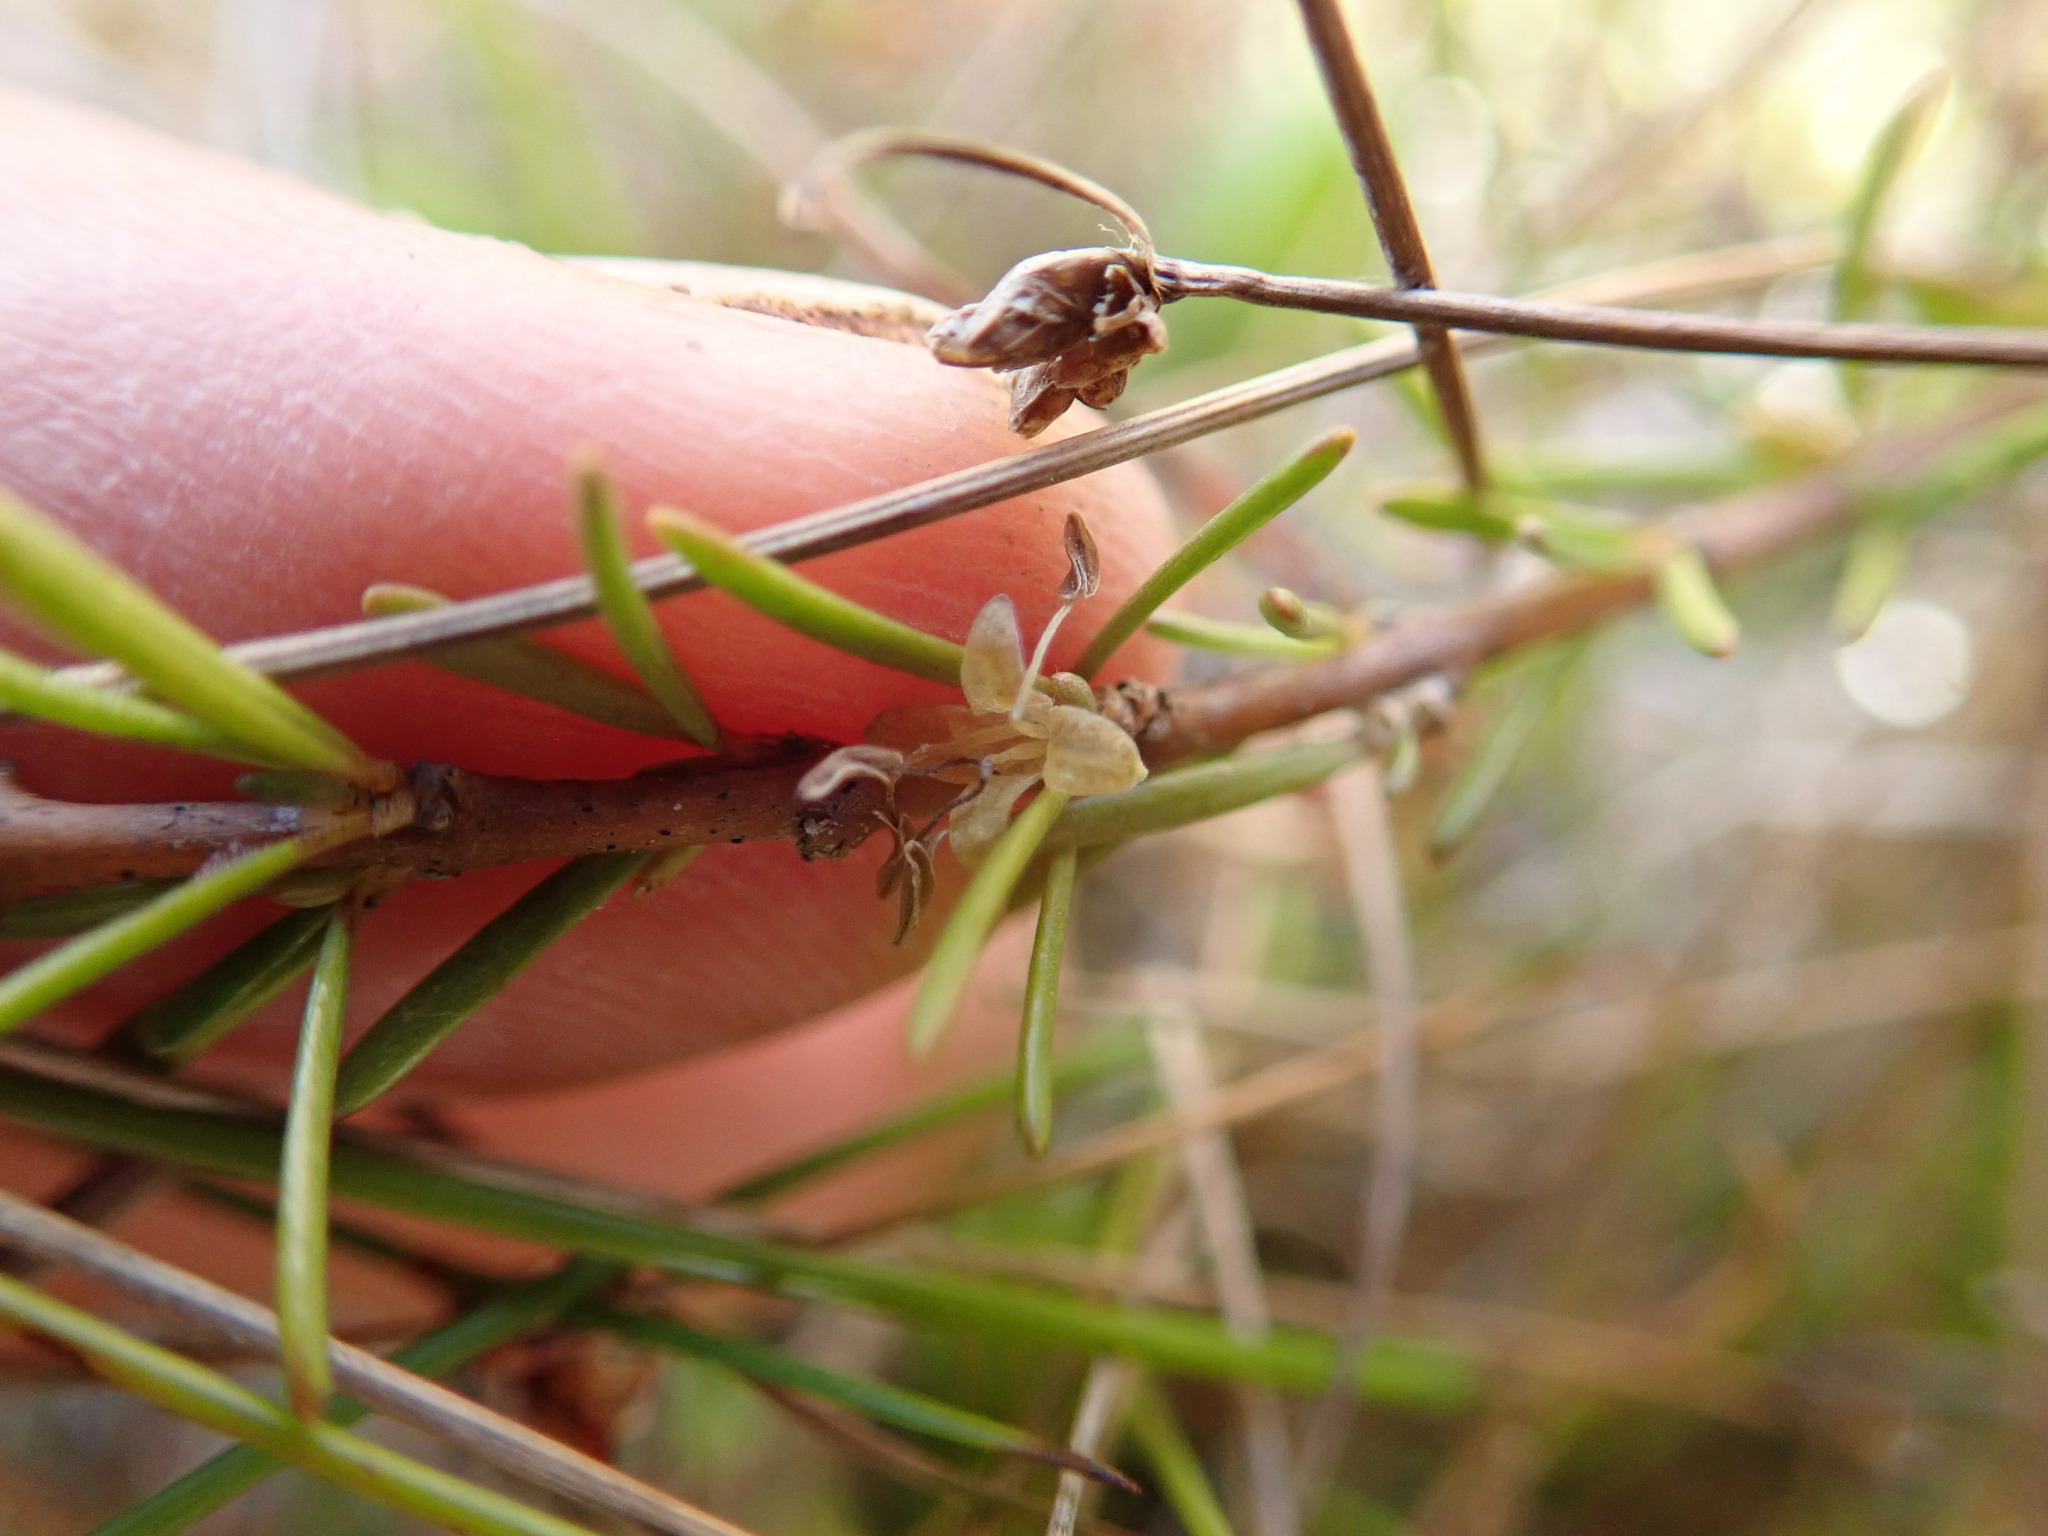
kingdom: Plantae
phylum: Tracheophyta
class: Magnoliopsida
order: Gentianales
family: Rubiaceae
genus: Coprosma
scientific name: Coprosma acerosa
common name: Sand coprosma
